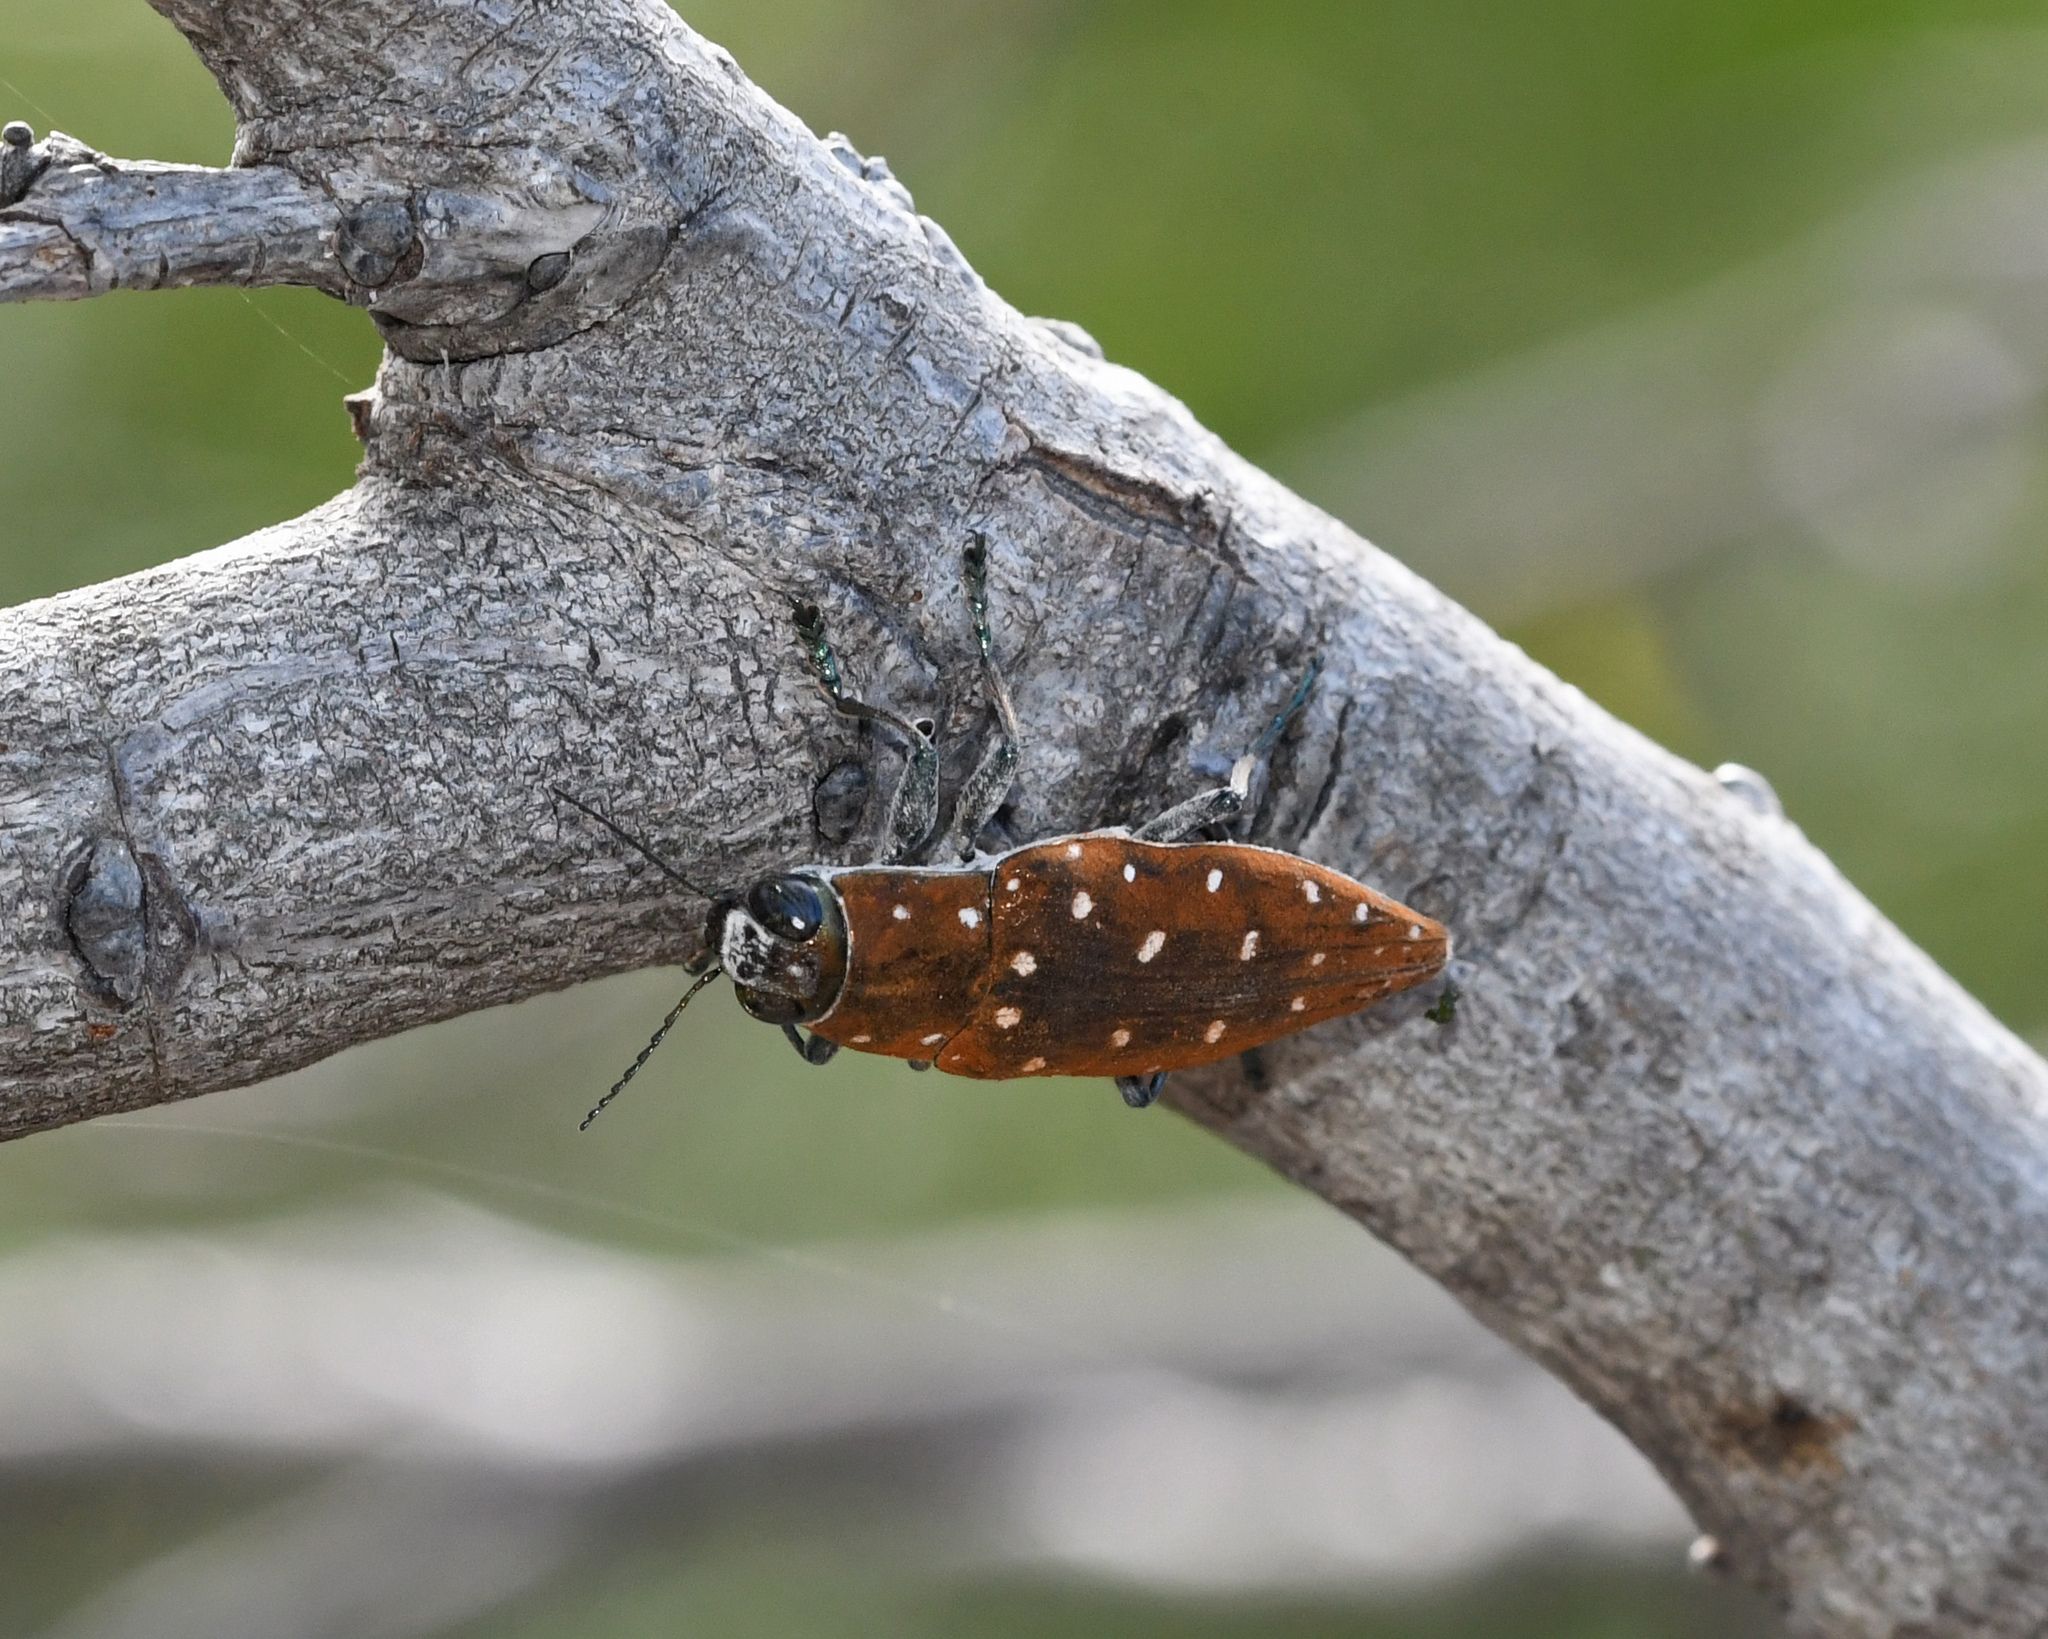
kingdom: Animalia
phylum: Arthropoda
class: Insecta
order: Coleoptera
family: Buprestidae
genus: Spectralia
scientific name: Spectralia albonotata
